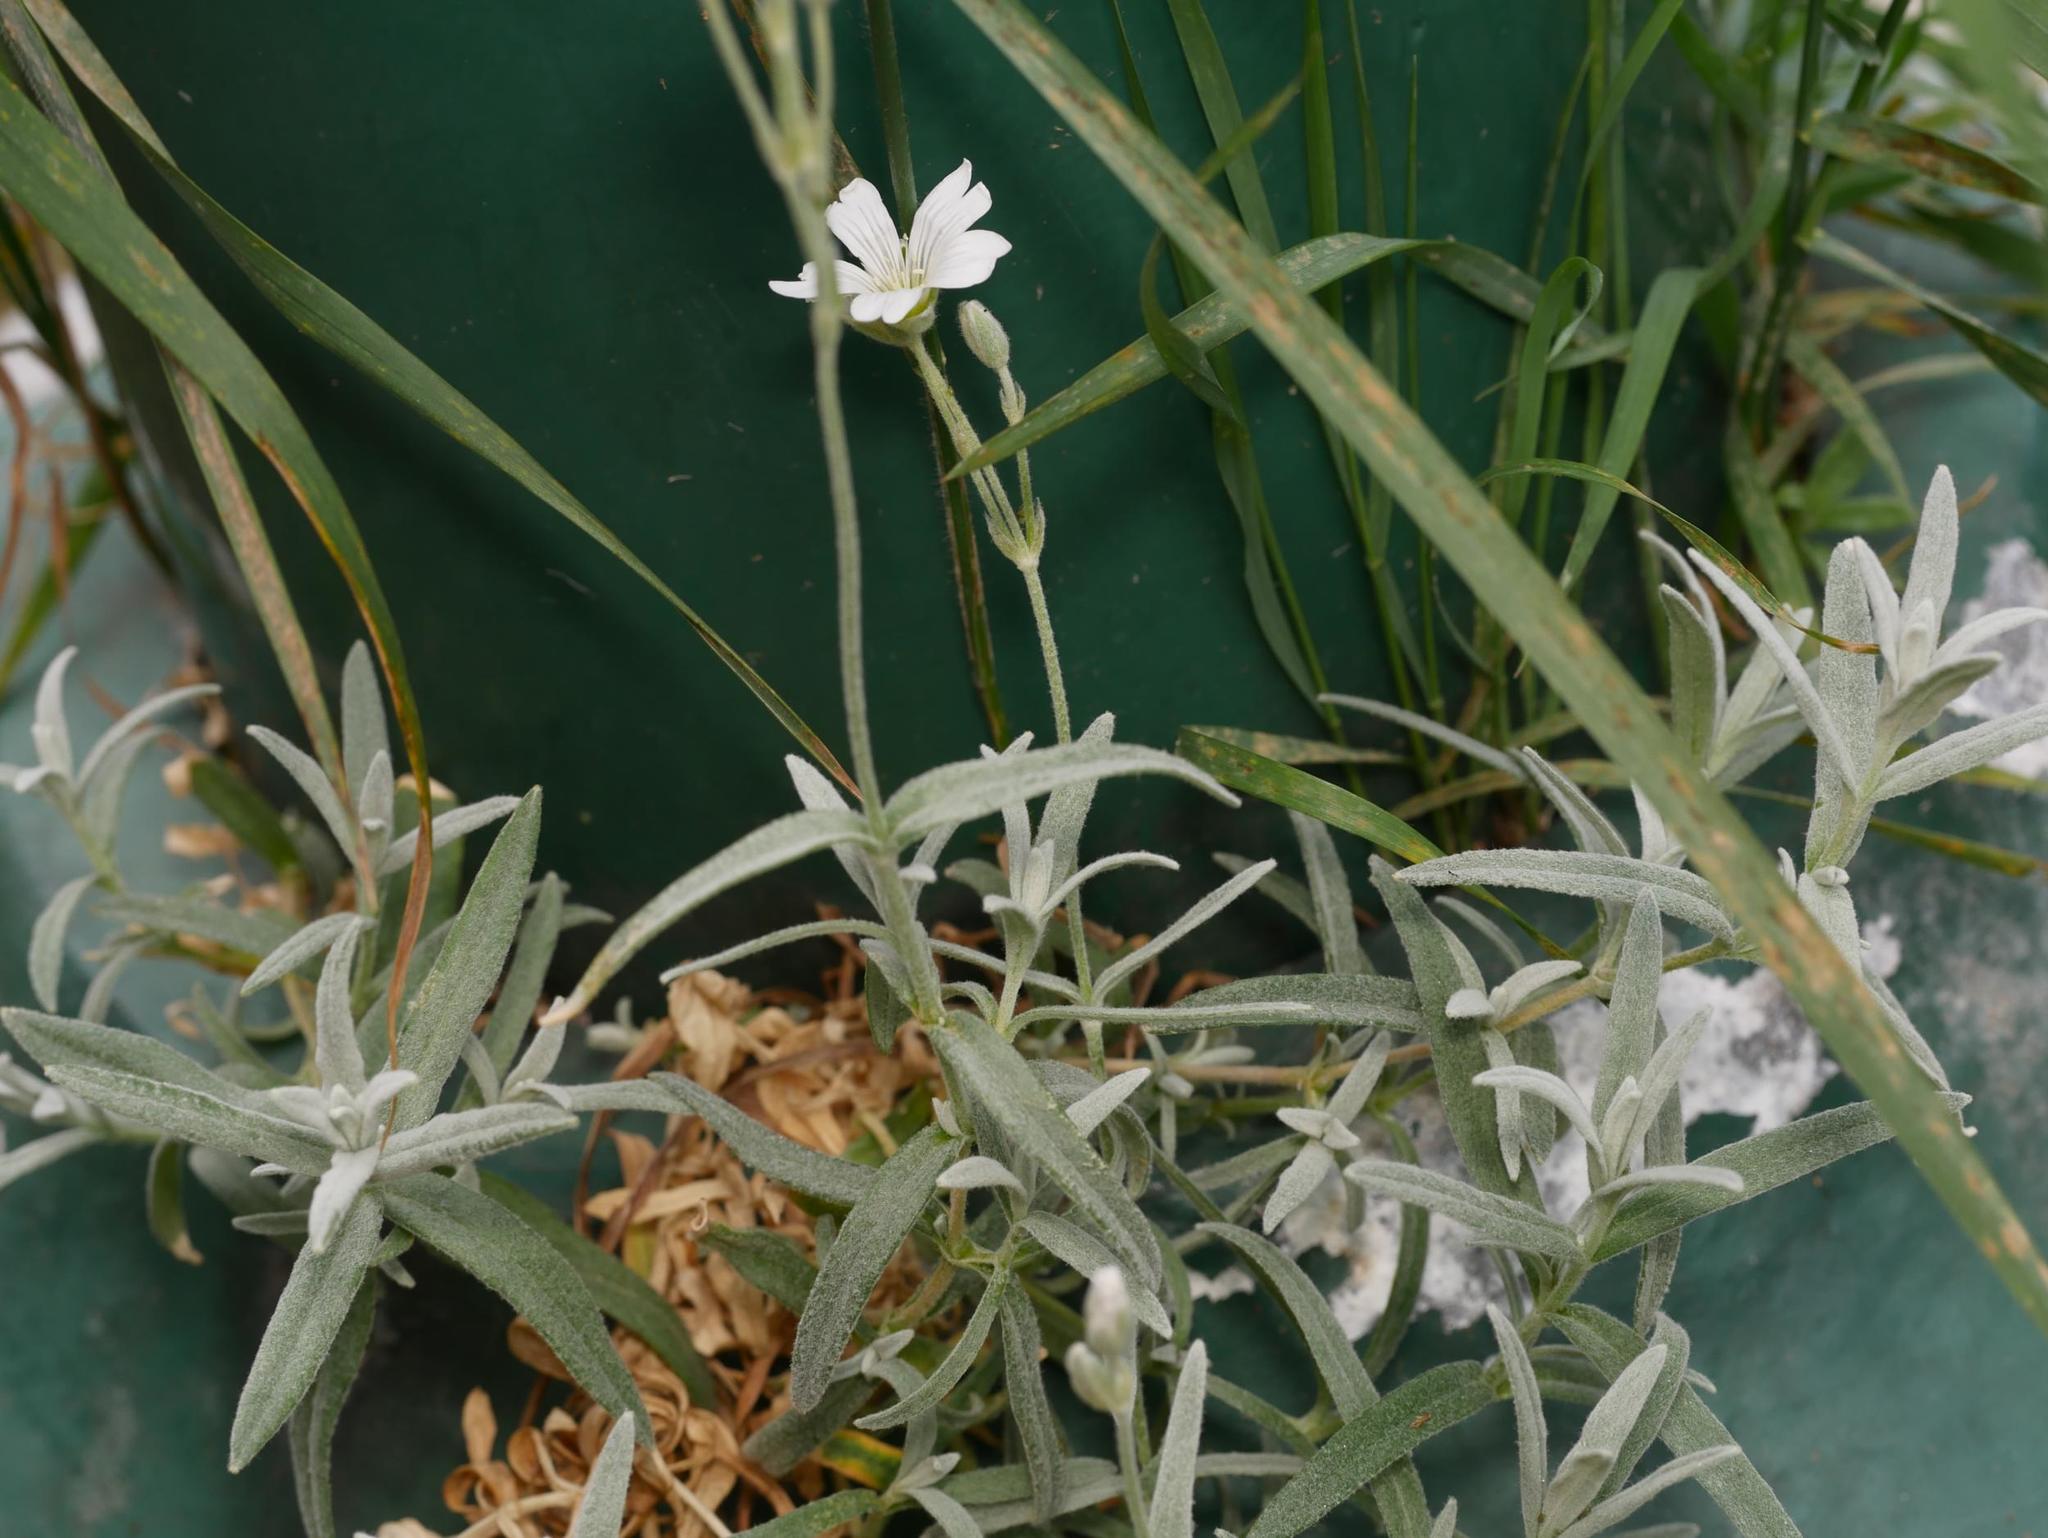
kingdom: Plantae
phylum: Tracheophyta
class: Magnoliopsida
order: Caryophyllales
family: Caryophyllaceae
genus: Cerastium
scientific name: Cerastium tomentosum
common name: Snow-in-summer
